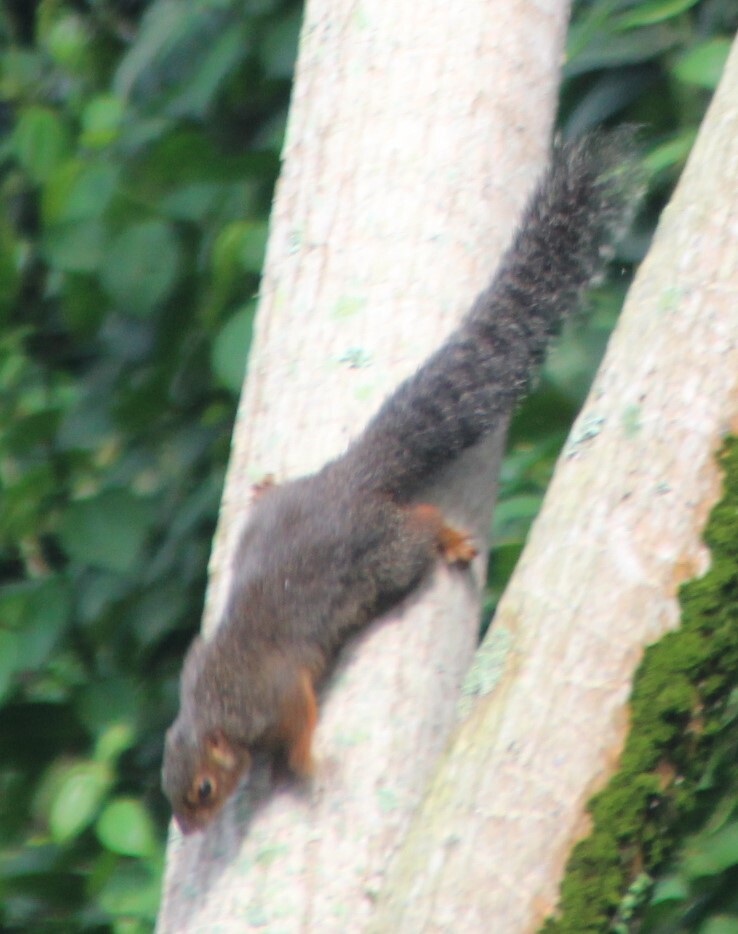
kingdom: Animalia
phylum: Chordata
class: Mammalia
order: Rodentia
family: Sciuridae
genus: Heliosciurus
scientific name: Heliosciurus rufobrachium
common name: Red-legged sun squirrel
